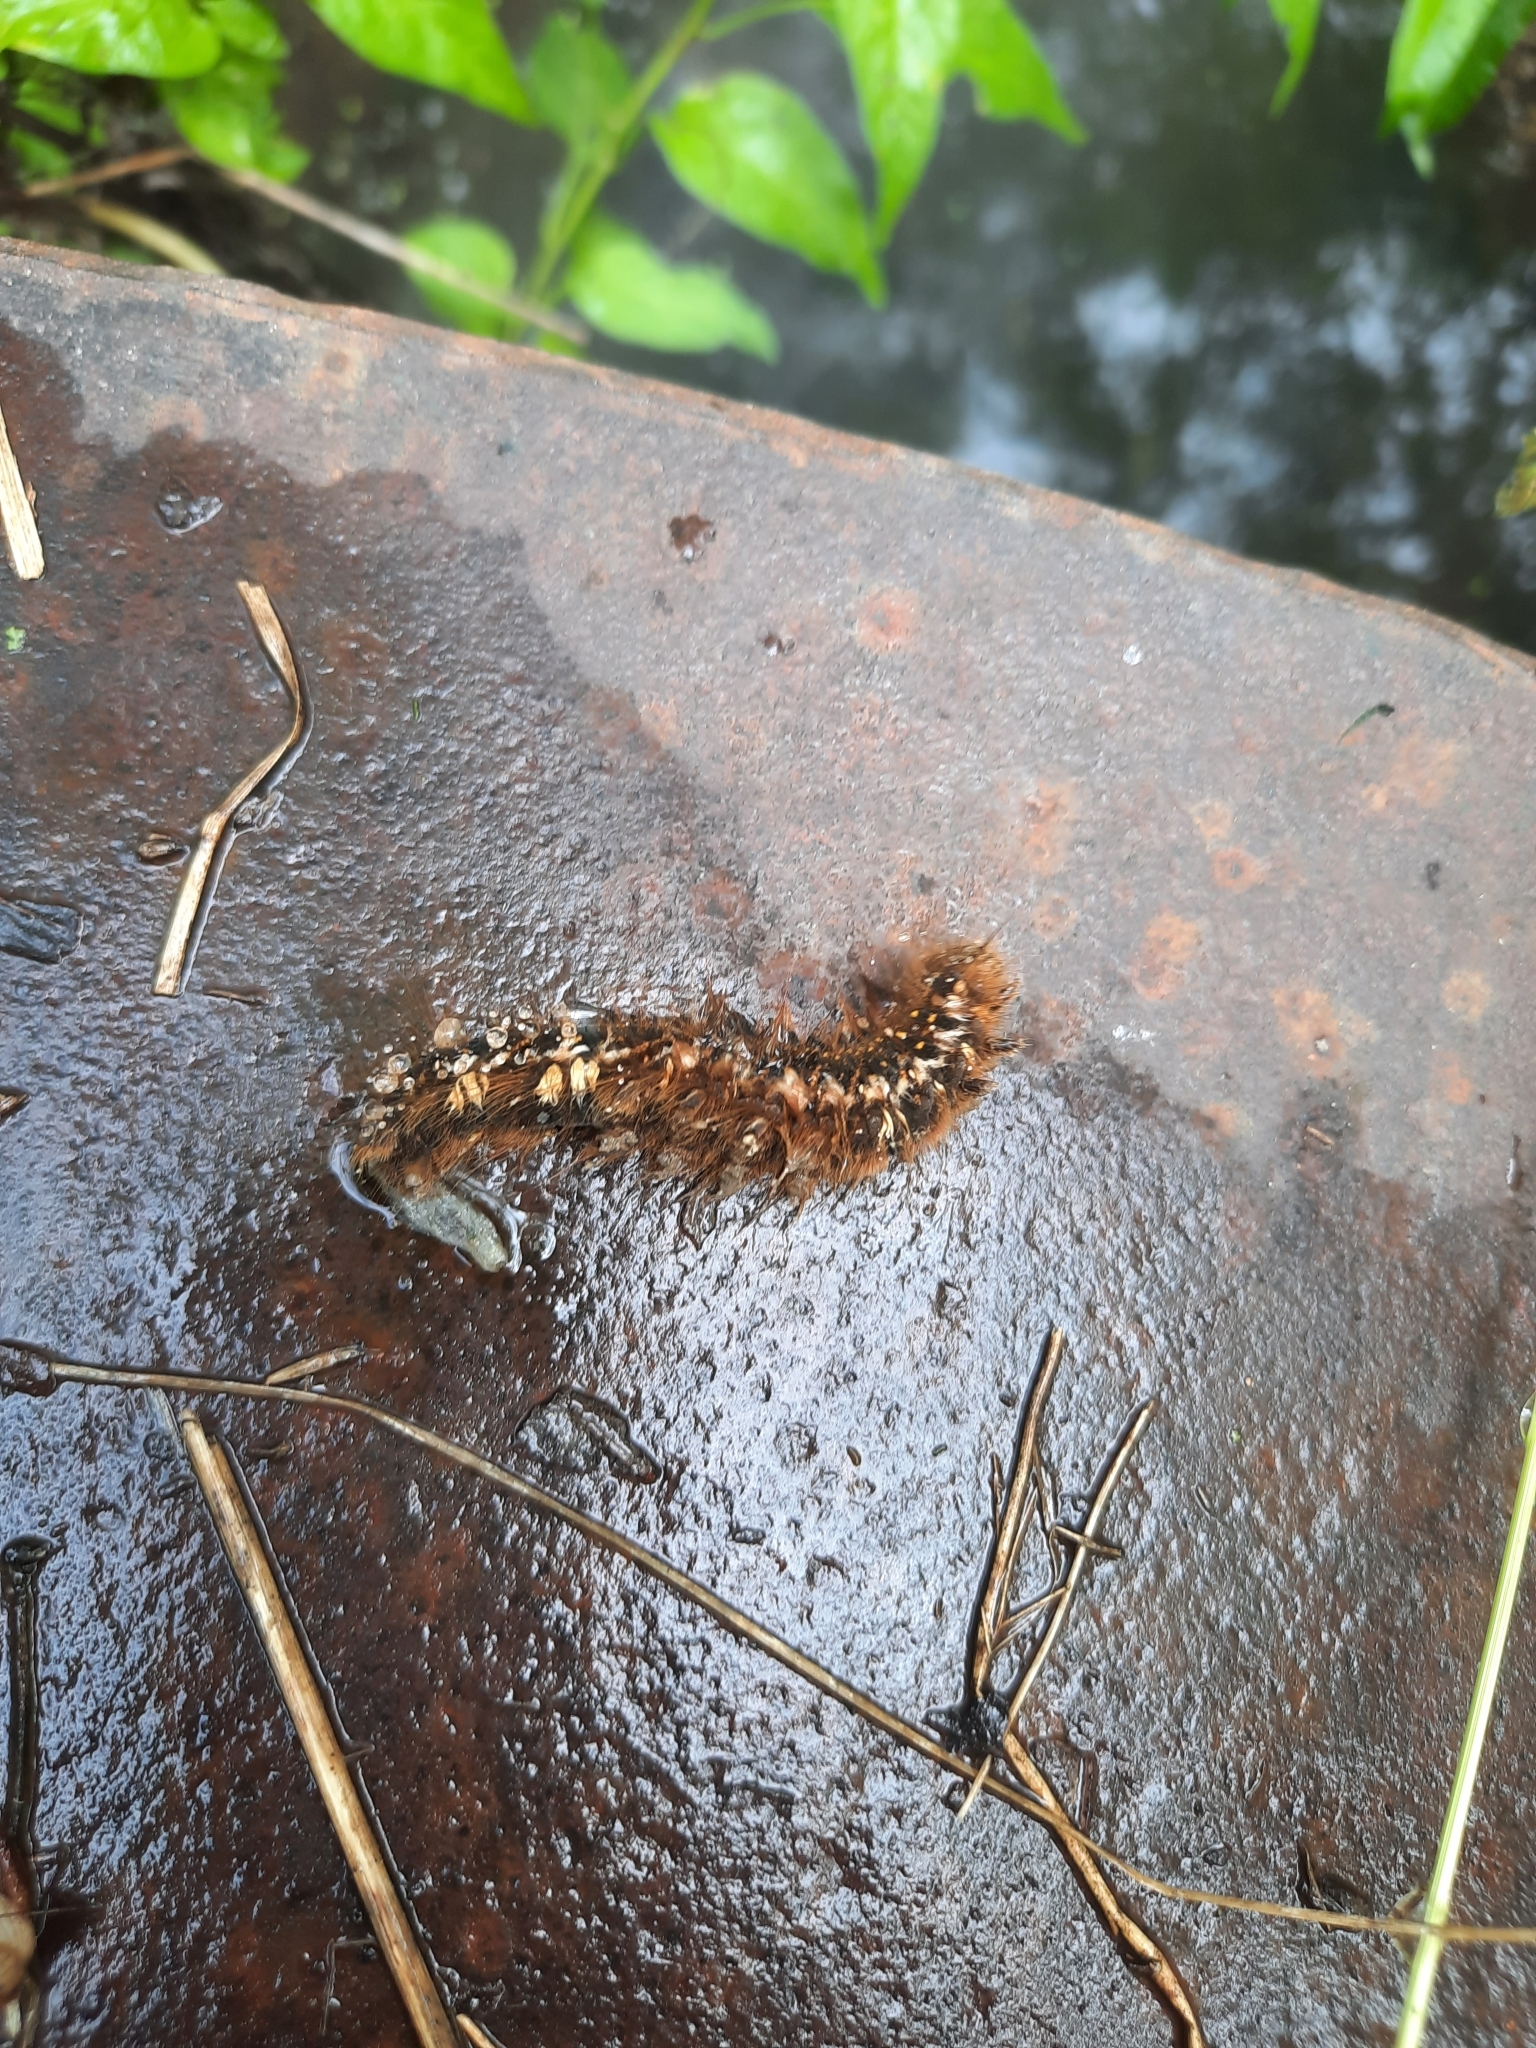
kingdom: Animalia
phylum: Arthropoda
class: Insecta
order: Lepidoptera
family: Lasiocampidae
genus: Euthrix
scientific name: Euthrix potatoria
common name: Drinker
